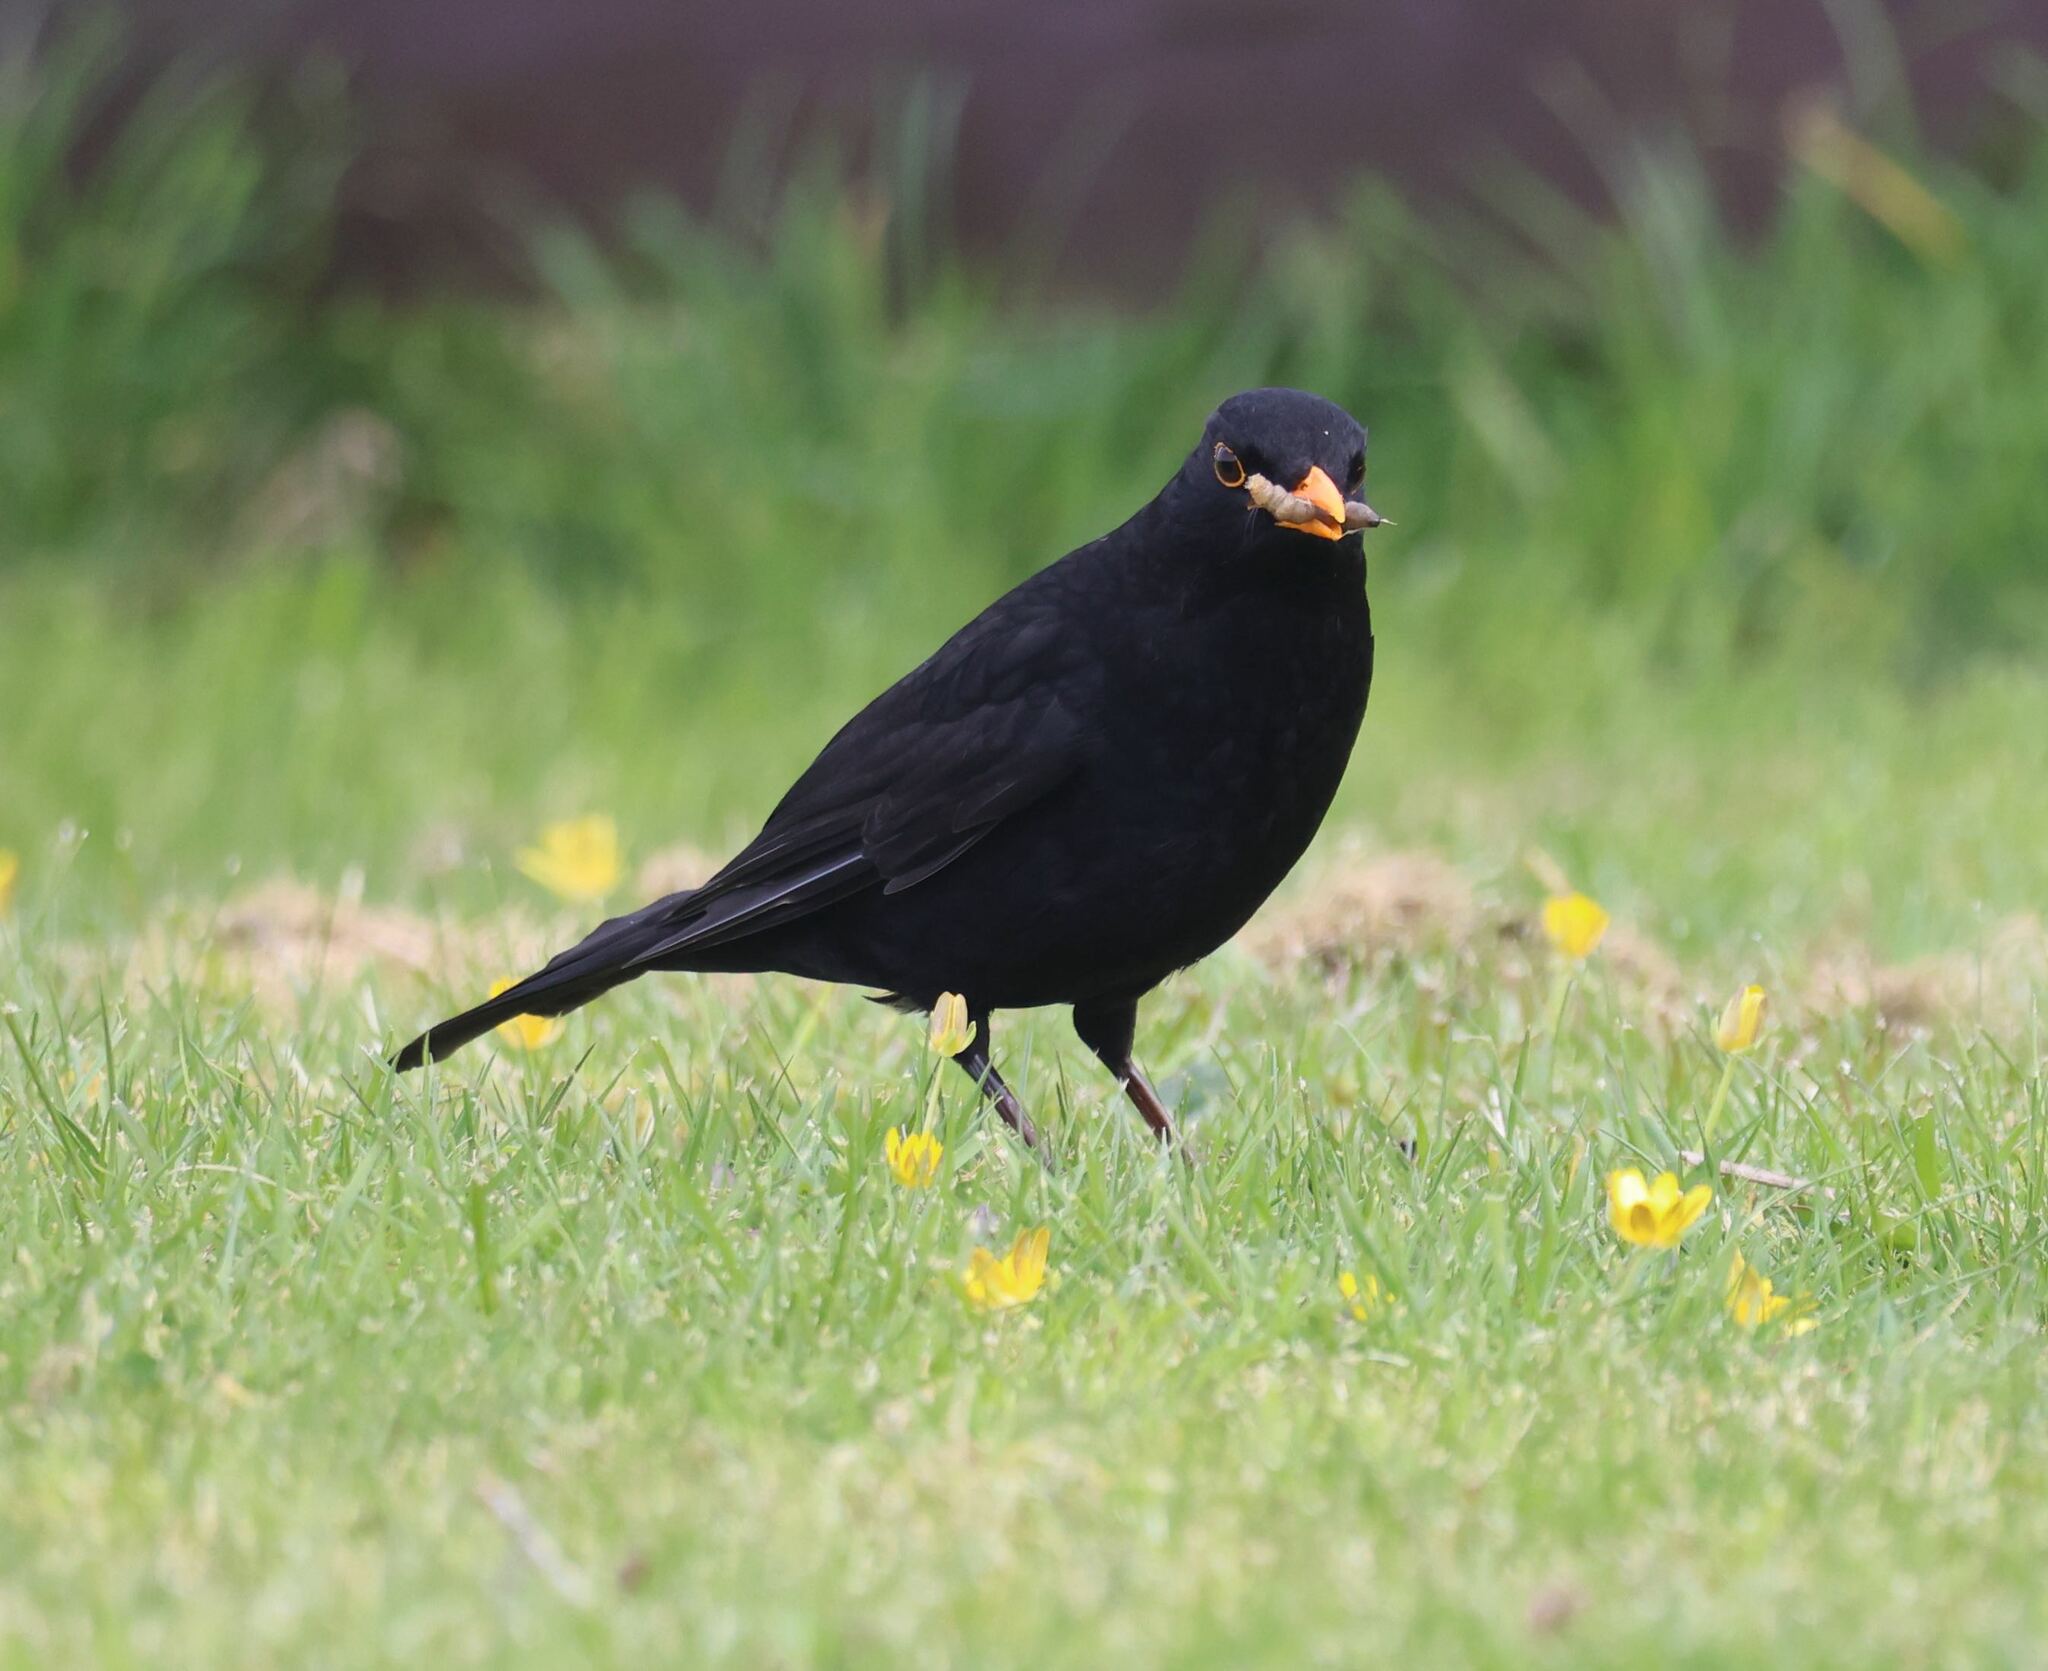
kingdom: Animalia
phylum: Chordata
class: Aves
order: Passeriformes
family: Turdidae
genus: Turdus
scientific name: Turdus merula
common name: Common blackbird
